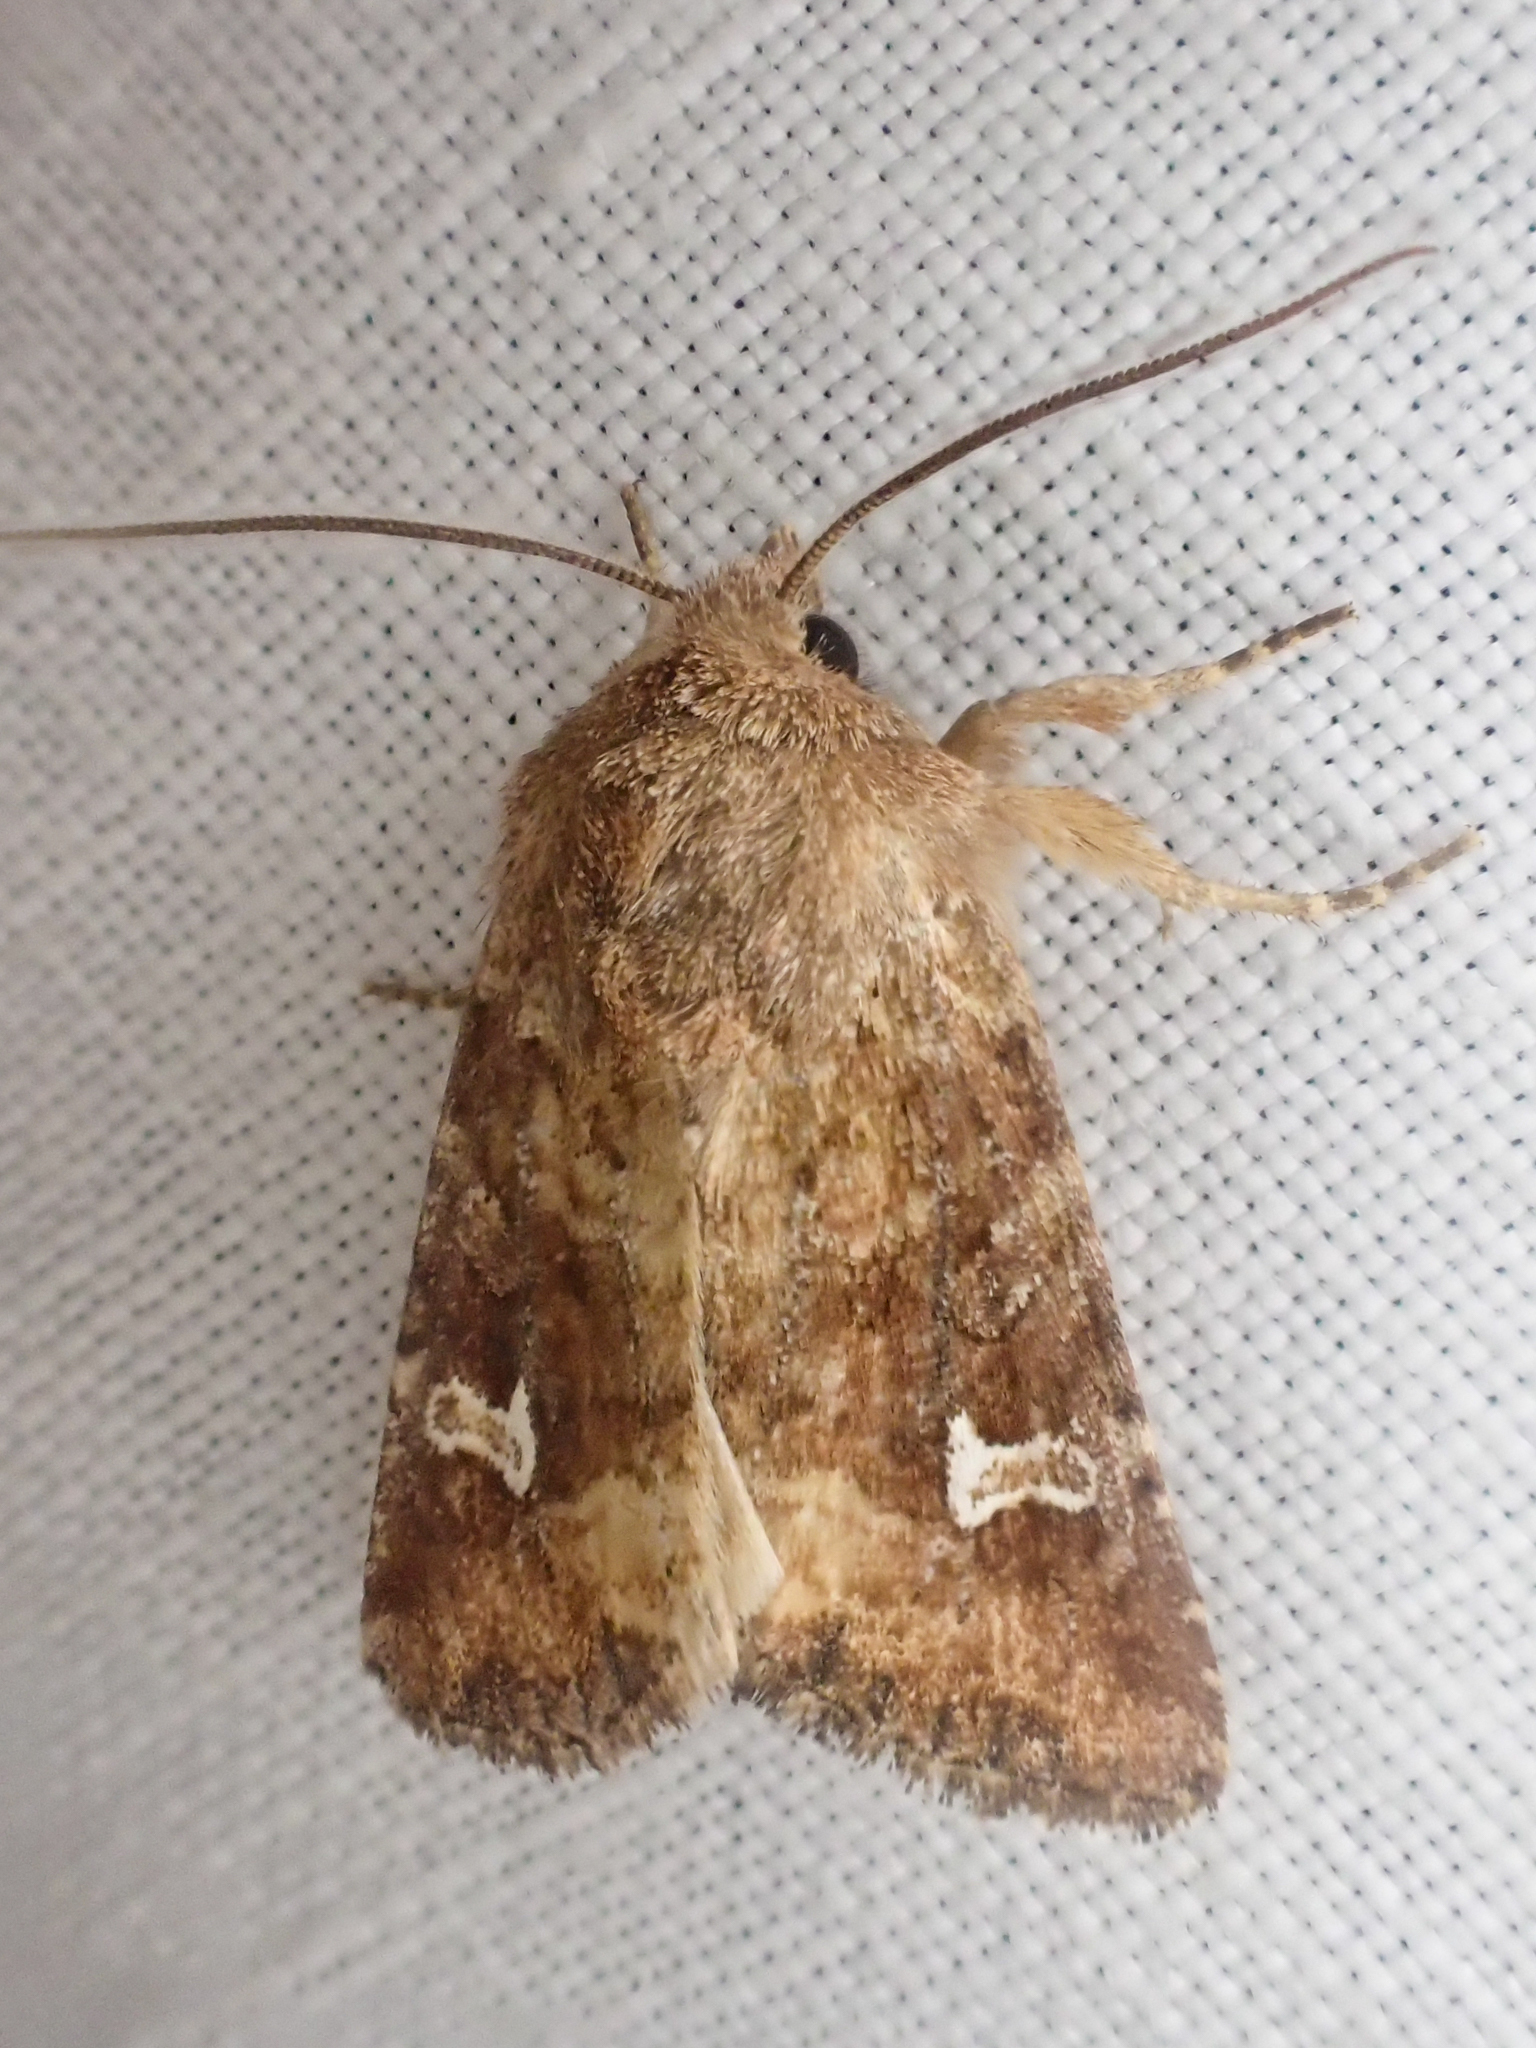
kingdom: Animalia
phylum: Arthropoda
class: Insecta
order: Lepidoptera
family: Noctuidae
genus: Lacinipolia
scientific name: Lacinipolia stricta
